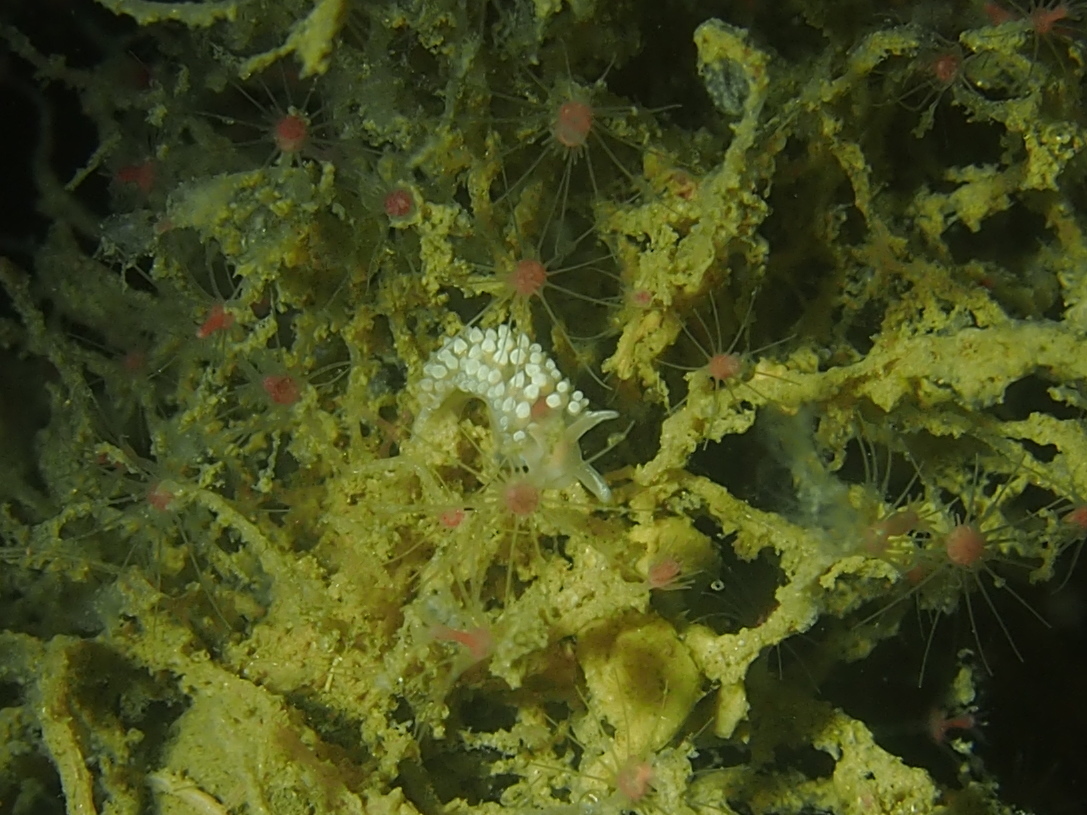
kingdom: Animalia
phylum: Mollusca
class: Gastropoda
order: Nudibranchia
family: Coryphellidae
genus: Coryphella
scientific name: Coryphella verrucosa
